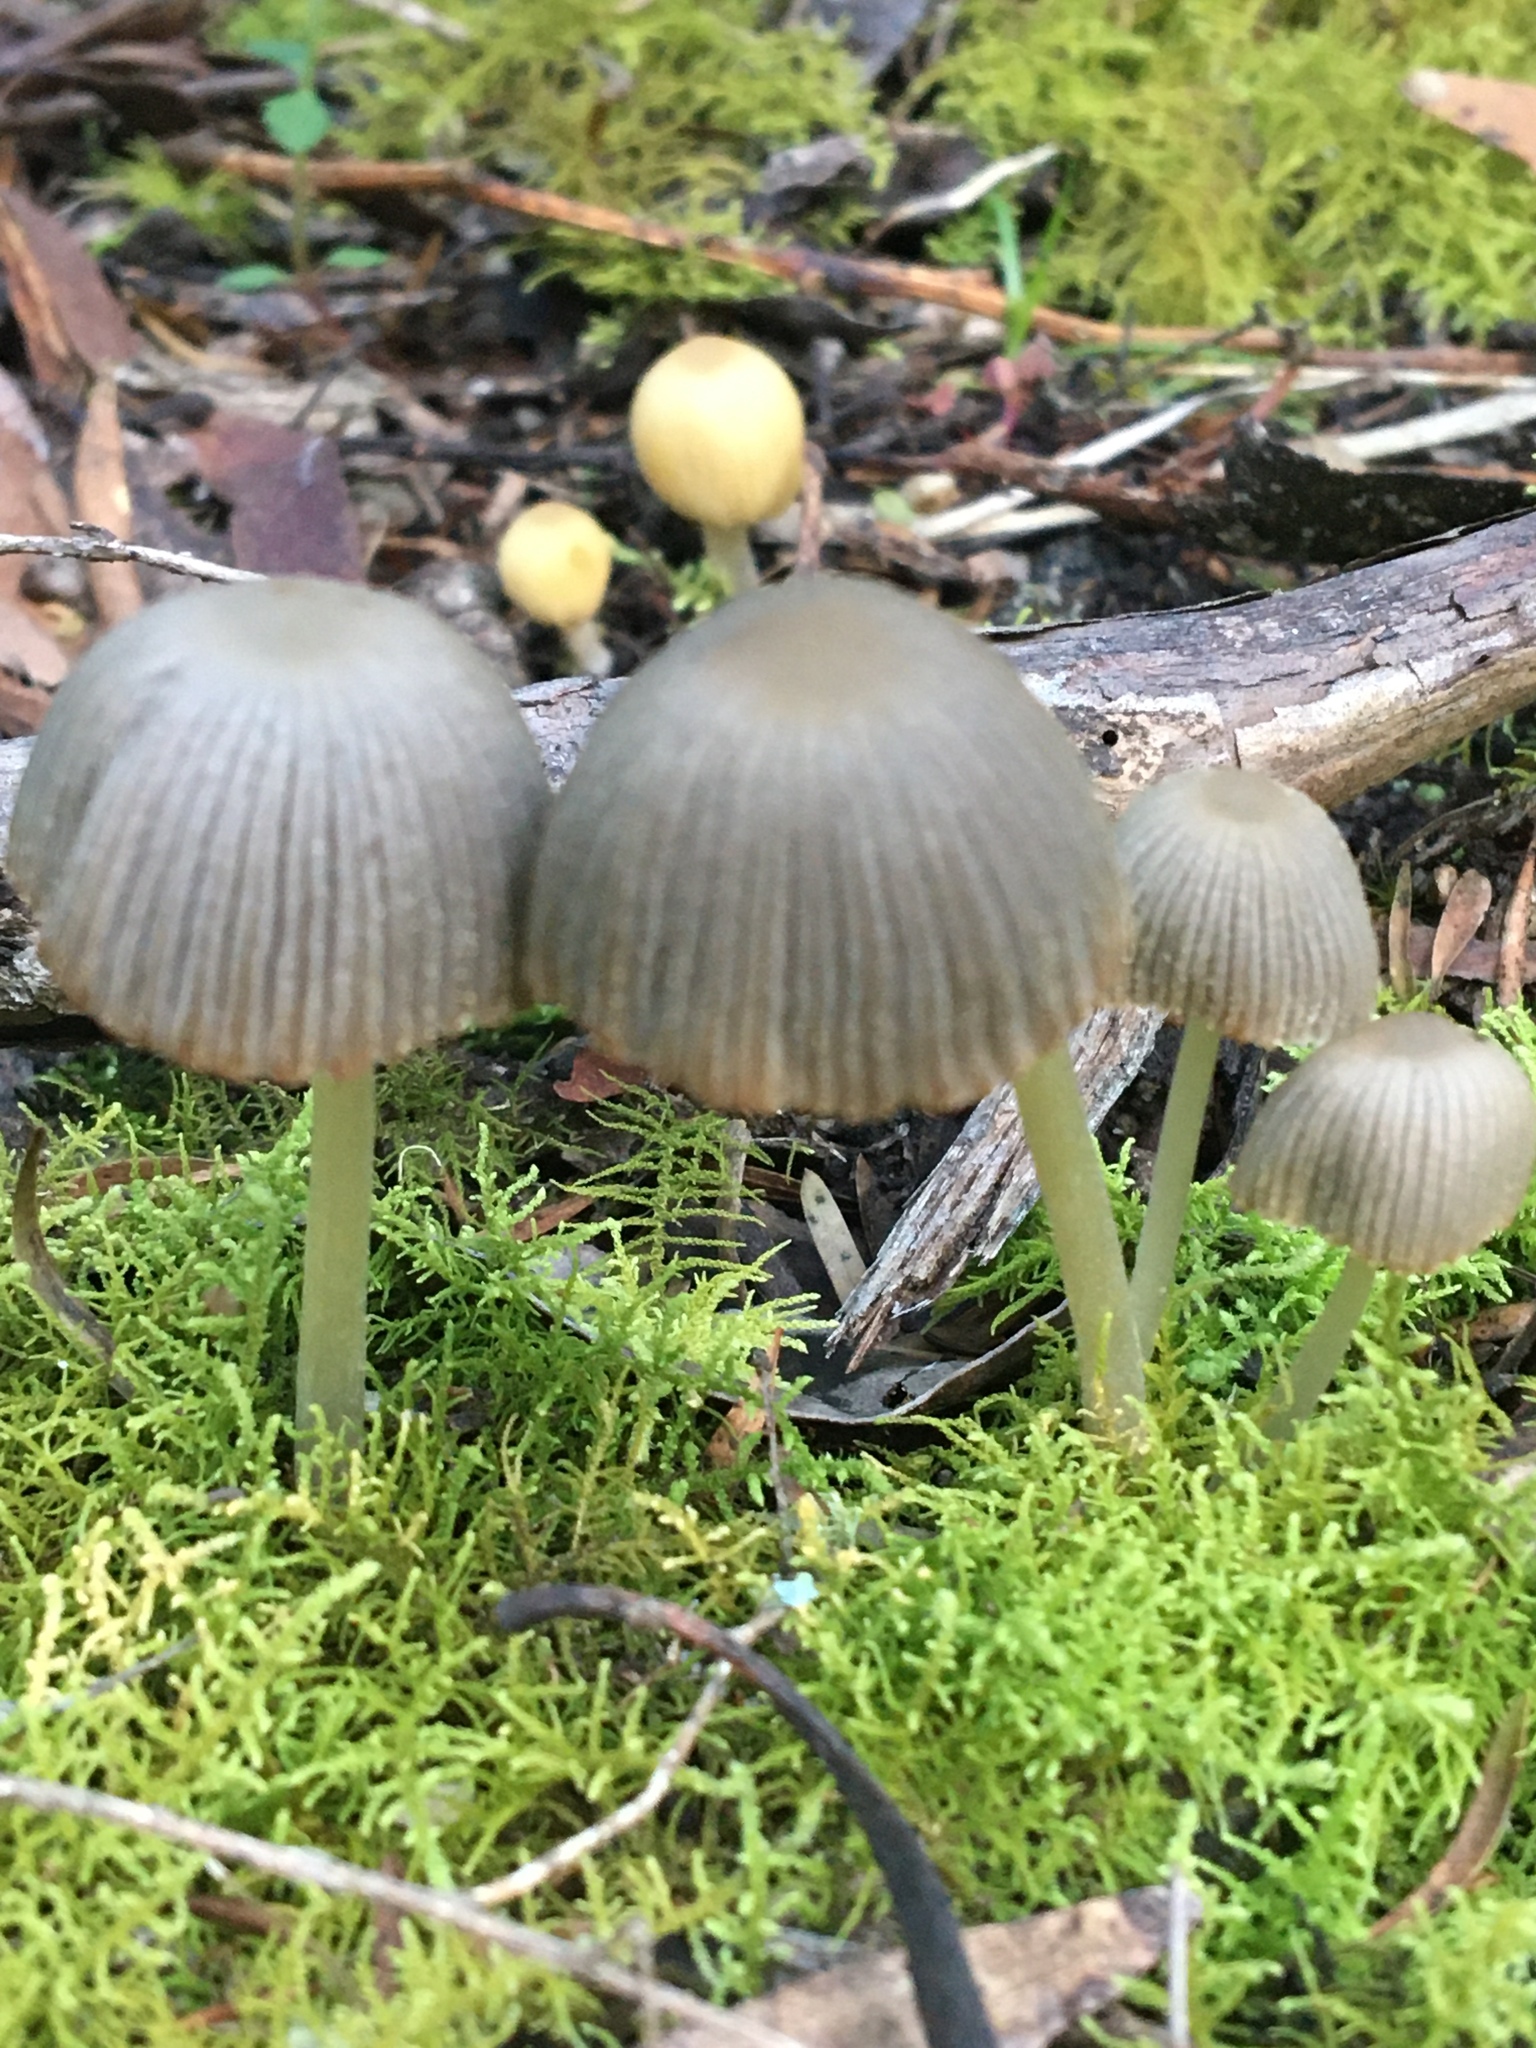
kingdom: Fungi
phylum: Basidiomycota
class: Agaricomycetes
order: Agaricales
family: Psathyrellaceae
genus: Coprinellus
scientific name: Coprinellus disseminatus
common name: Fairies' bonnets
